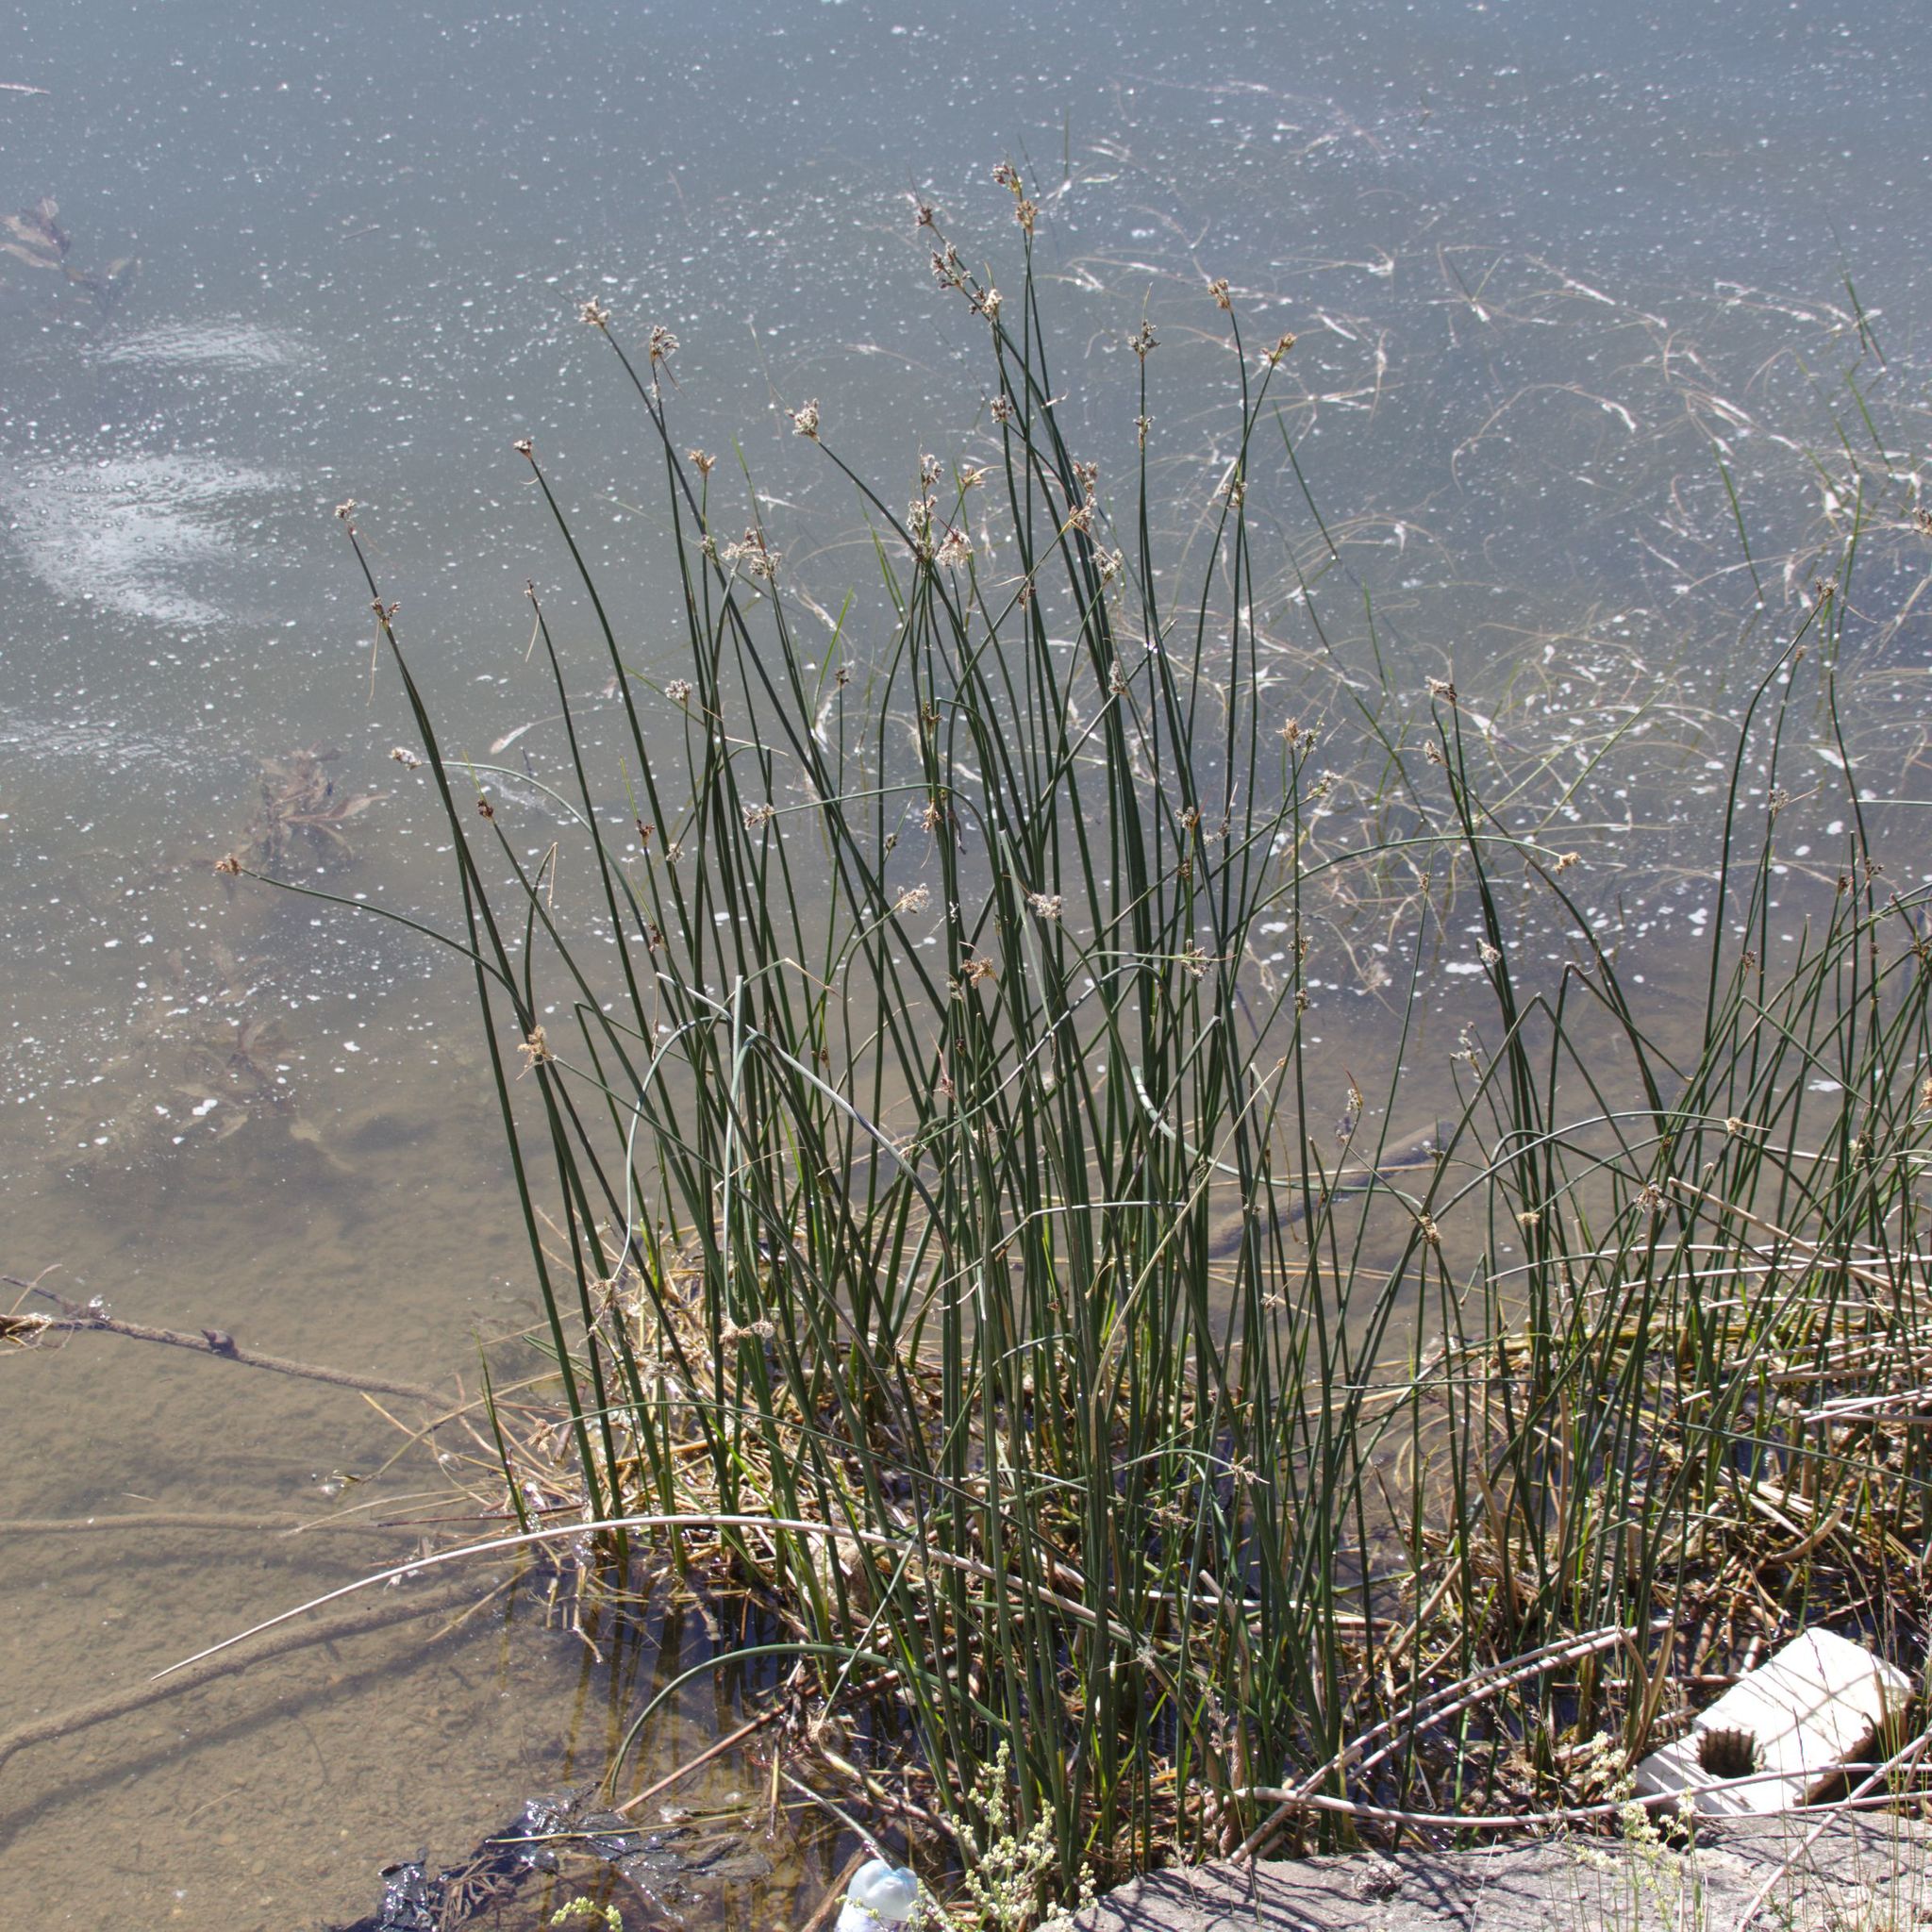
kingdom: Plantae
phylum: Tracheophyta
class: Liliopsida
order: Poales
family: Cyperaceae
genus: Schoenoplectus
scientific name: Schoenoplectus
